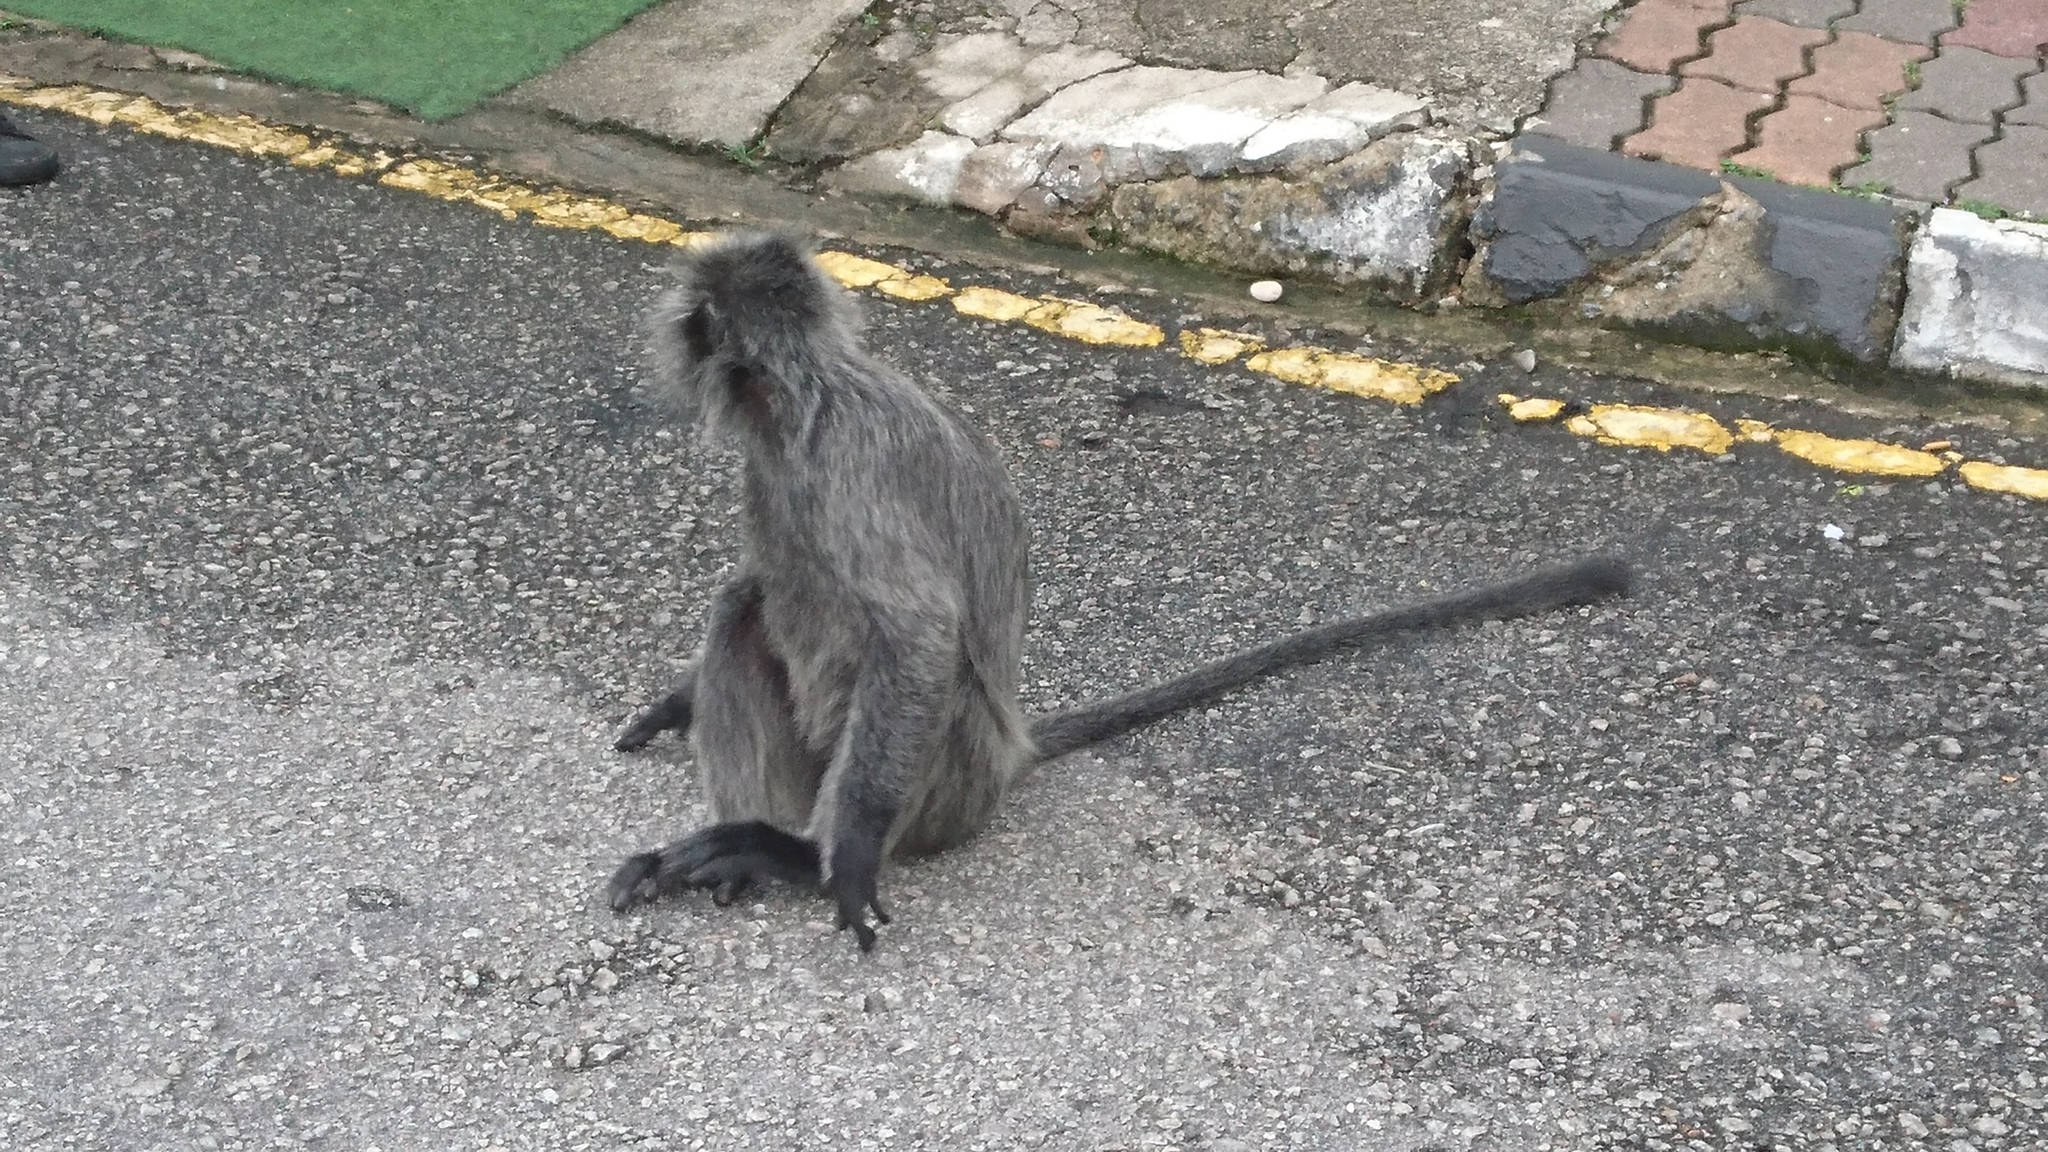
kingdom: Animalia
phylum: Chordata
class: Mammalia
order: Primates
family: Cercopithecidae
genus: Trachypithecus
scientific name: Trachypithecus selangorensis
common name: Selangor silvery langur
